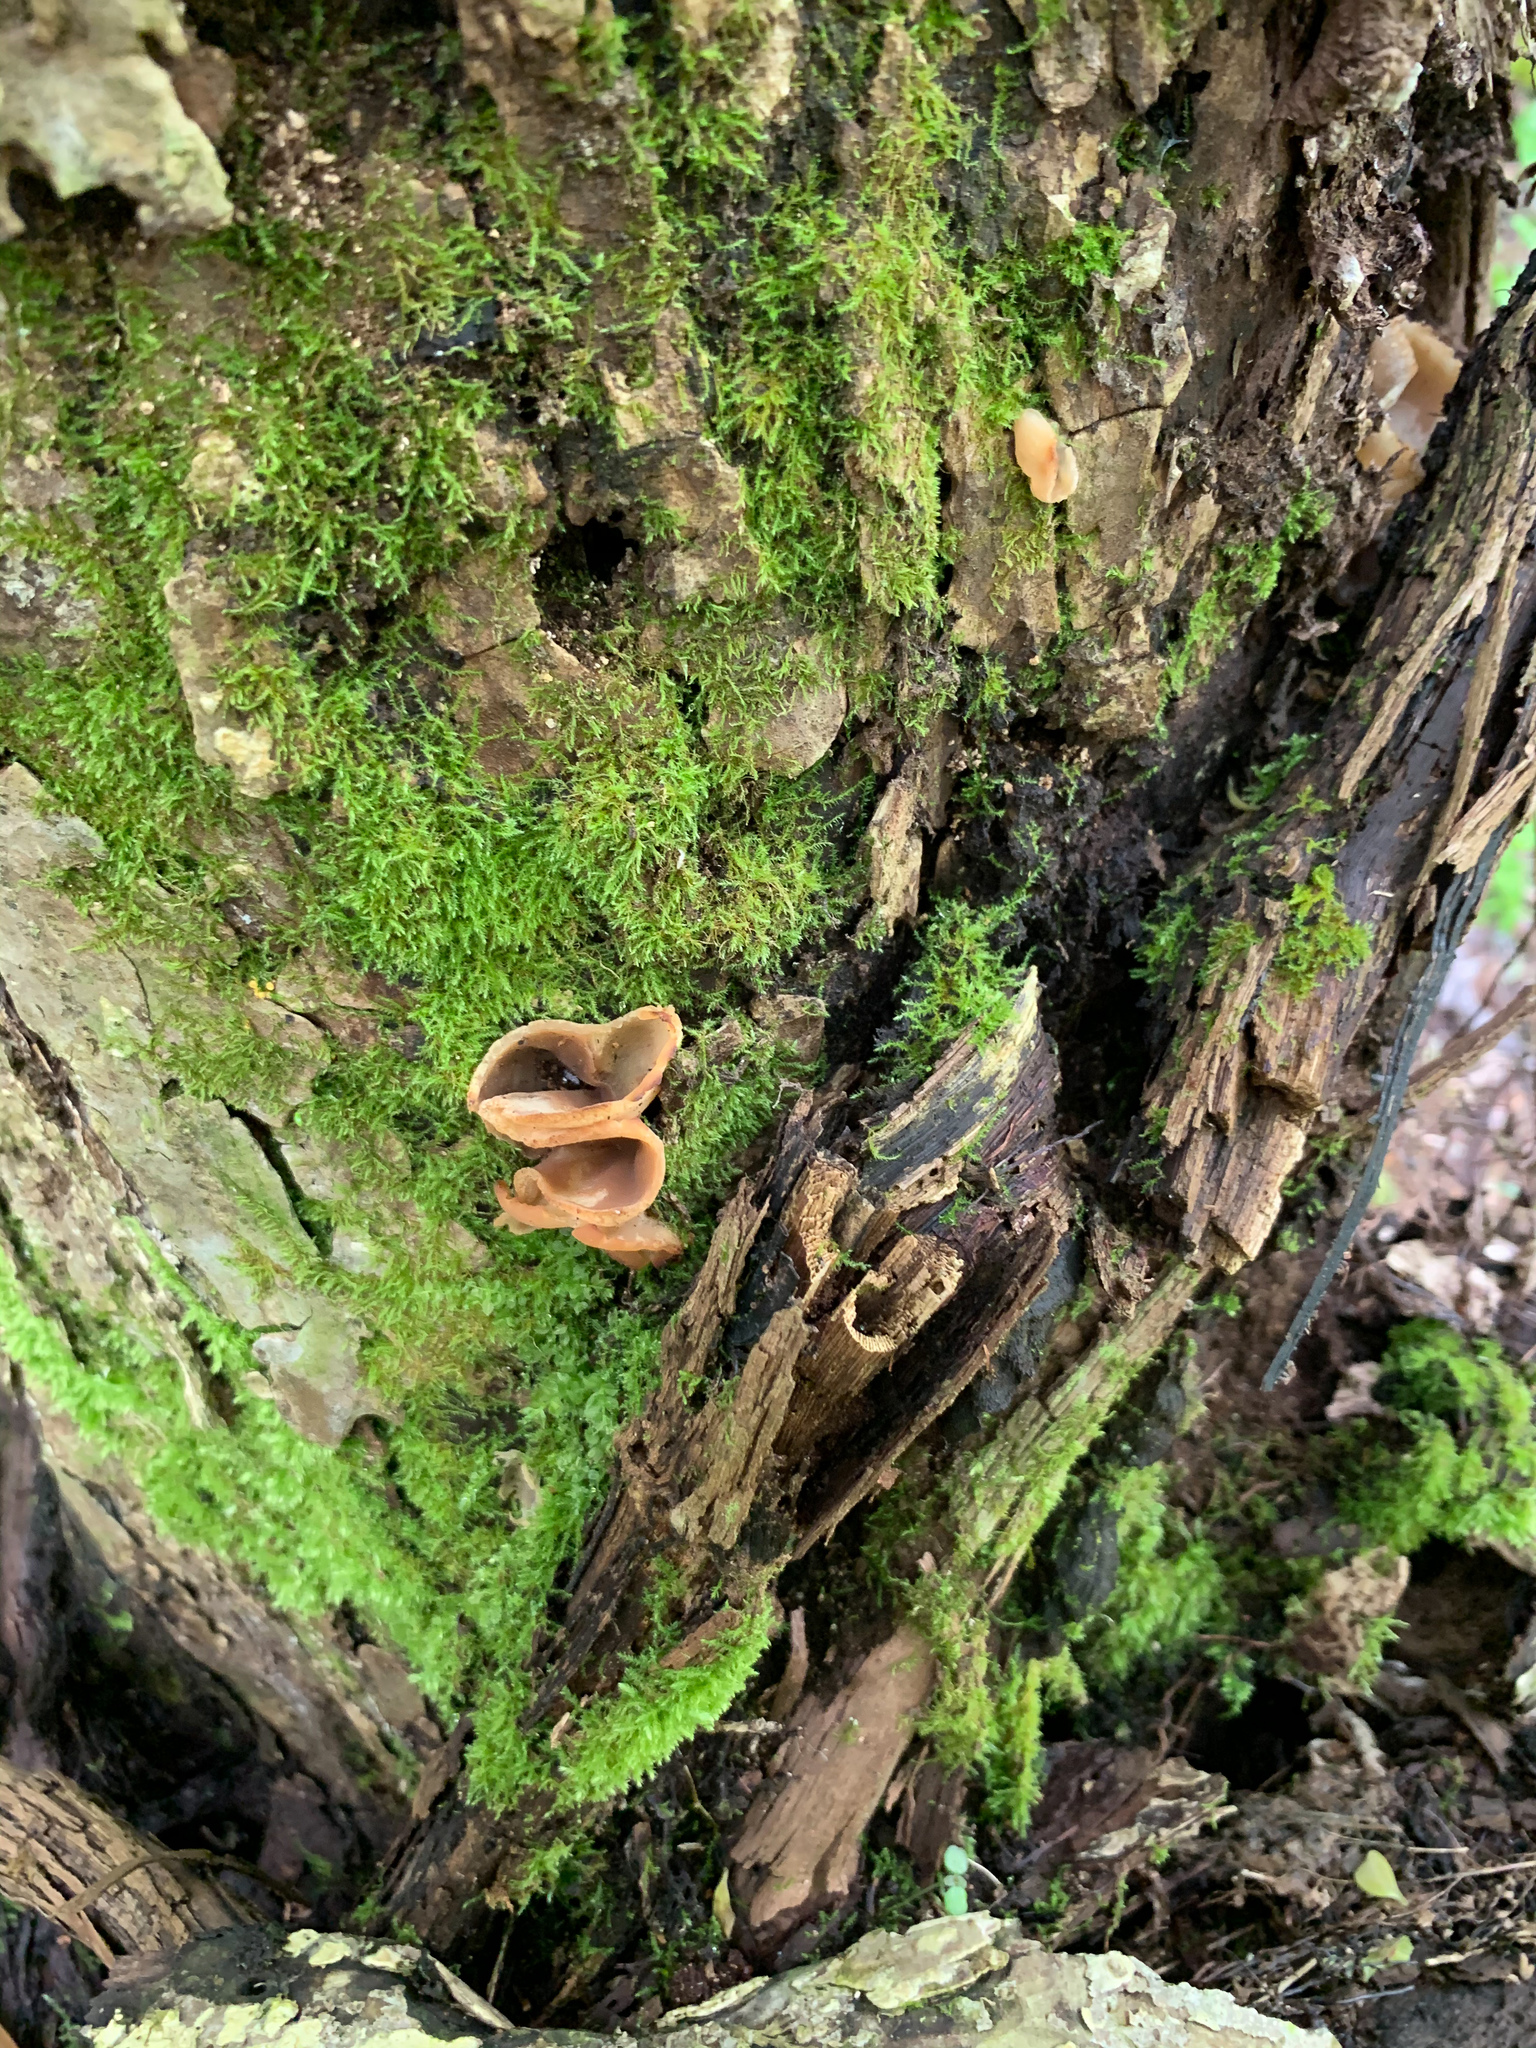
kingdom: Fungi
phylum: Ascomycota
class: Pezizomycetes
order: Pezizales
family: Pezizaceae
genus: Phylloscypha
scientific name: Phylloscypha phyllogena
